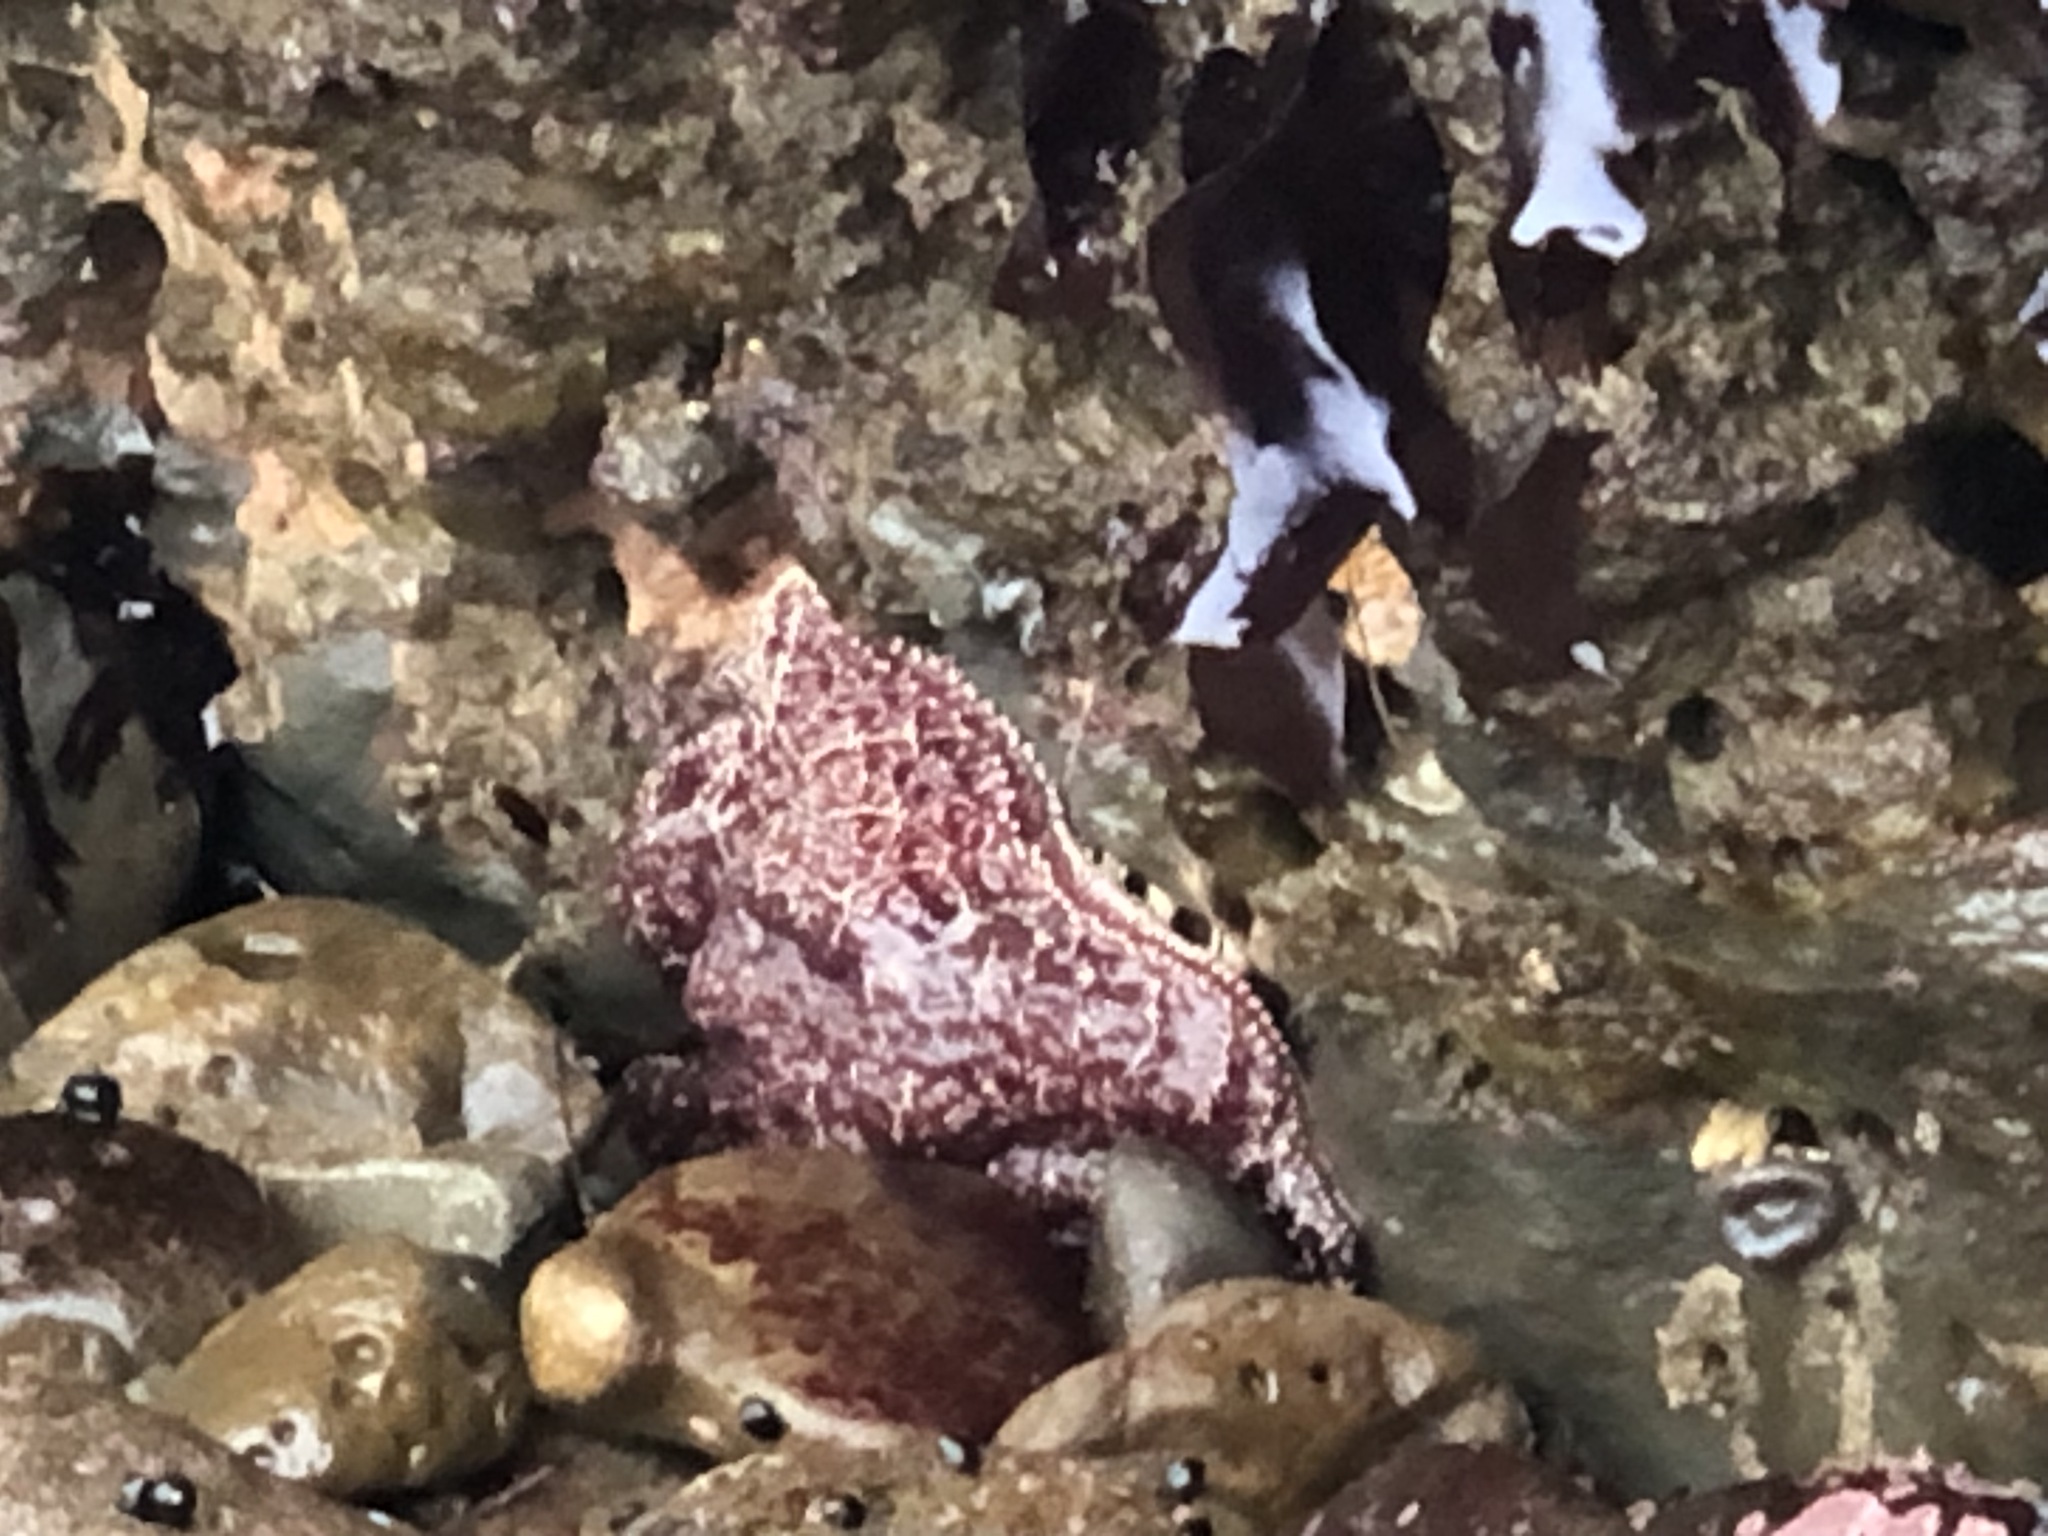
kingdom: Animalia
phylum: Echinodermata
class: Asteroidea
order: Forcipulatida
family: Asteriidae
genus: Pisaster
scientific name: Pisaster ochraceus
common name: Ochre stars
